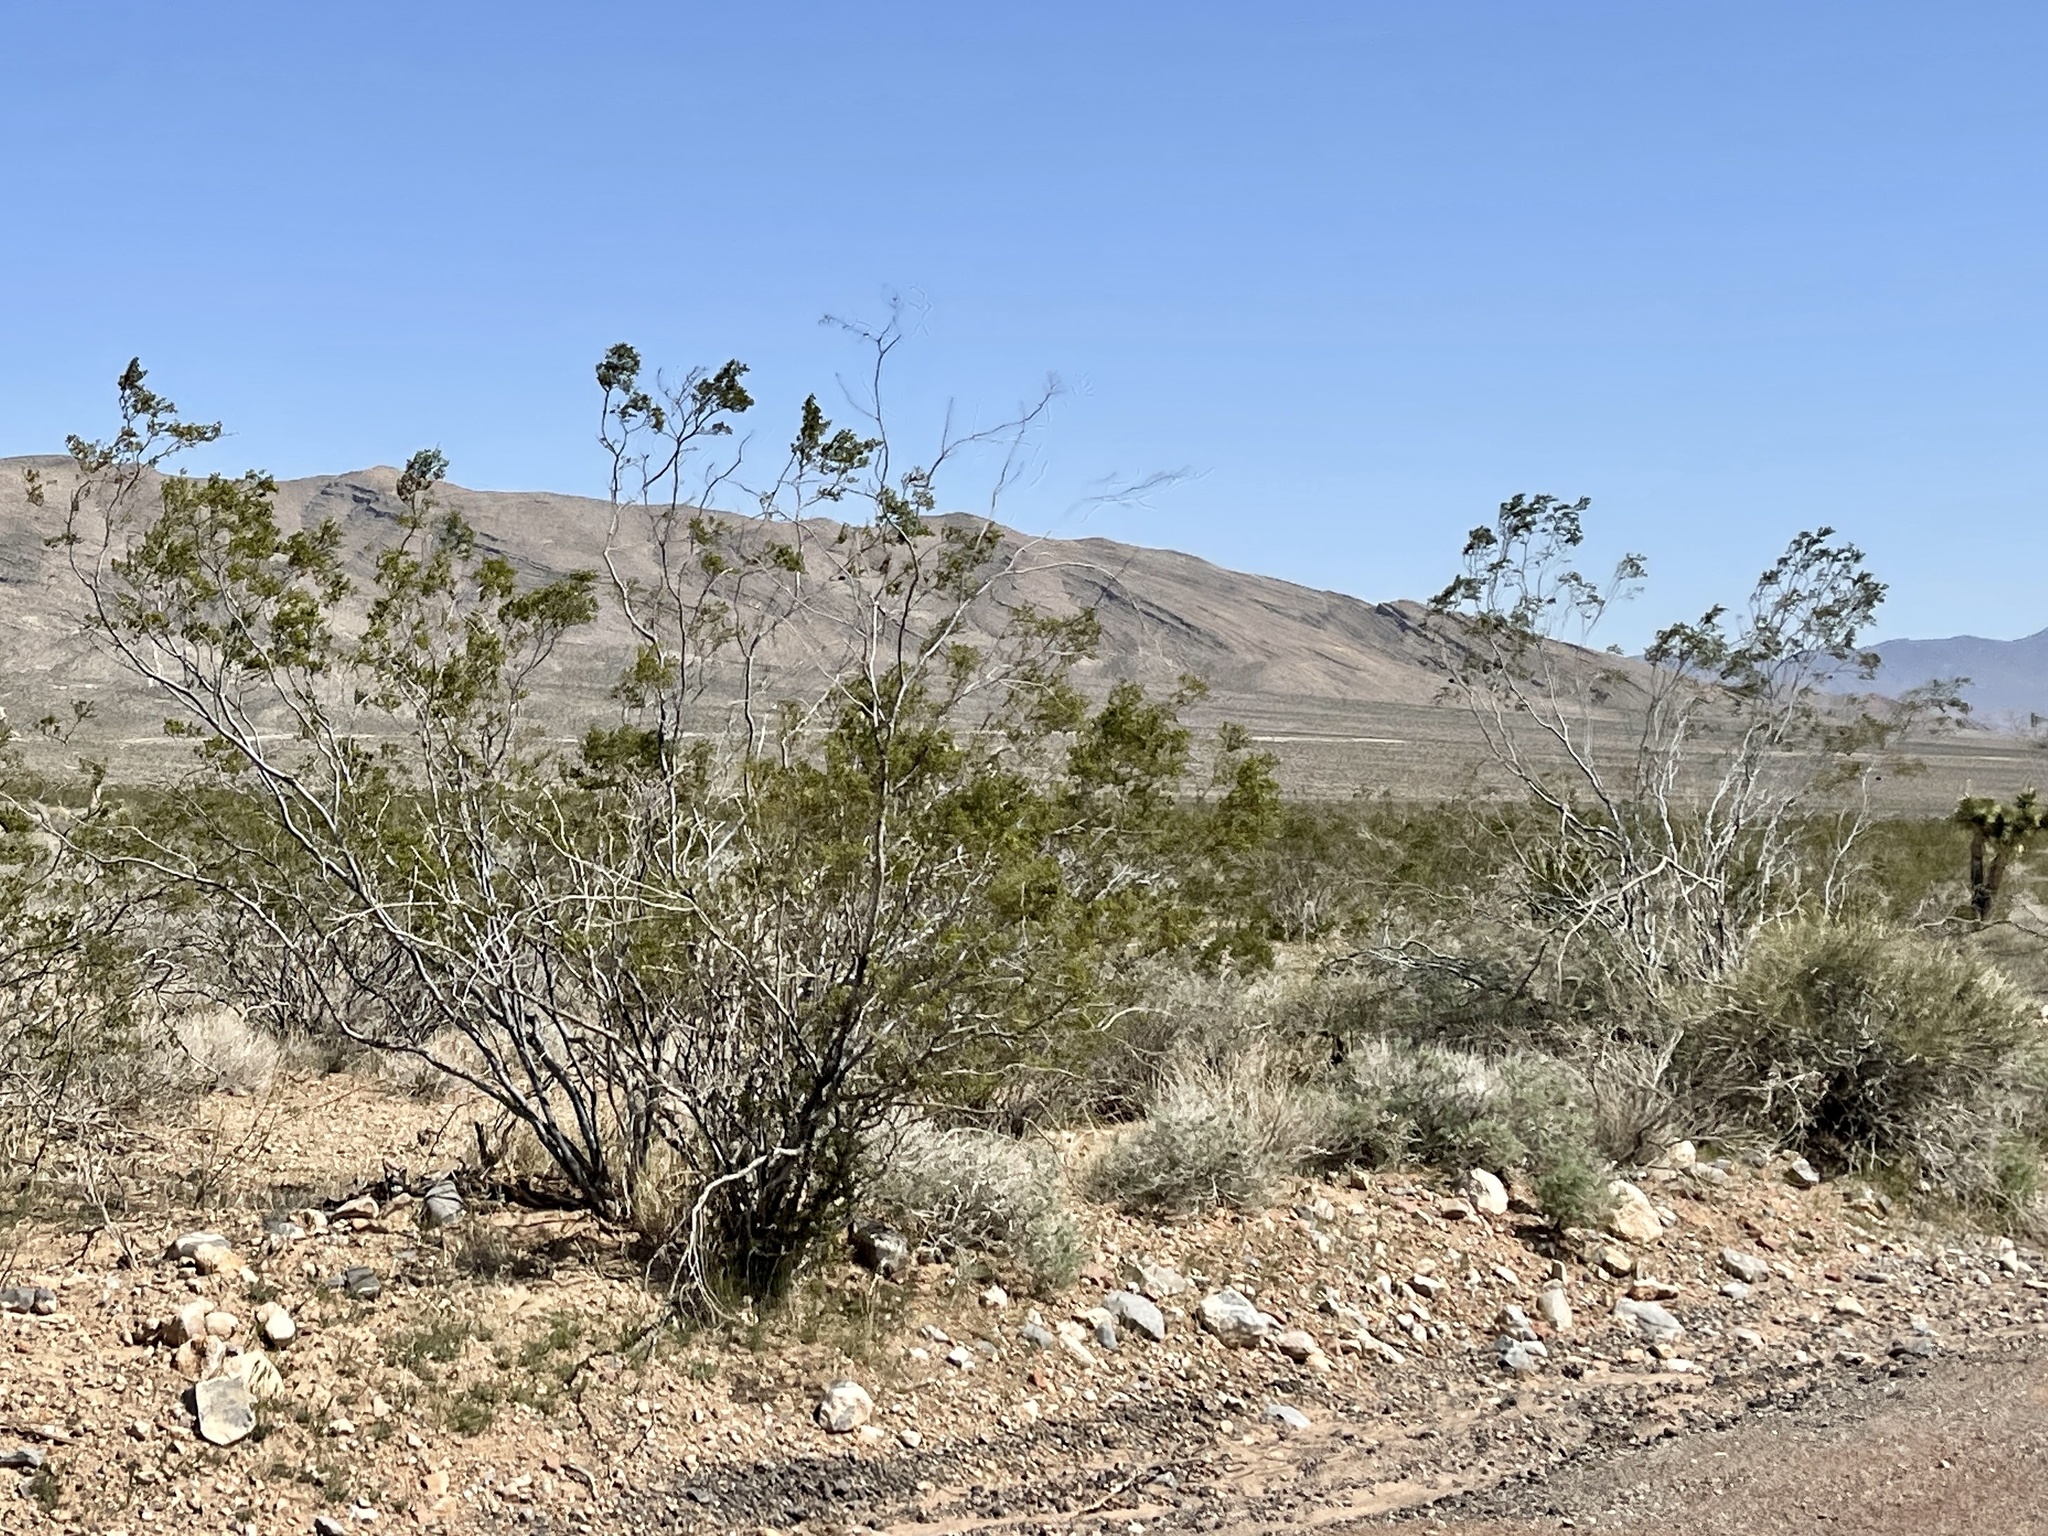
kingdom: Plantae
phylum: Tracheophyta
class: Magnoliopsida
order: Zygophyllales
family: Zygophyllaceae
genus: Larrea
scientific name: Larrea tridentata
